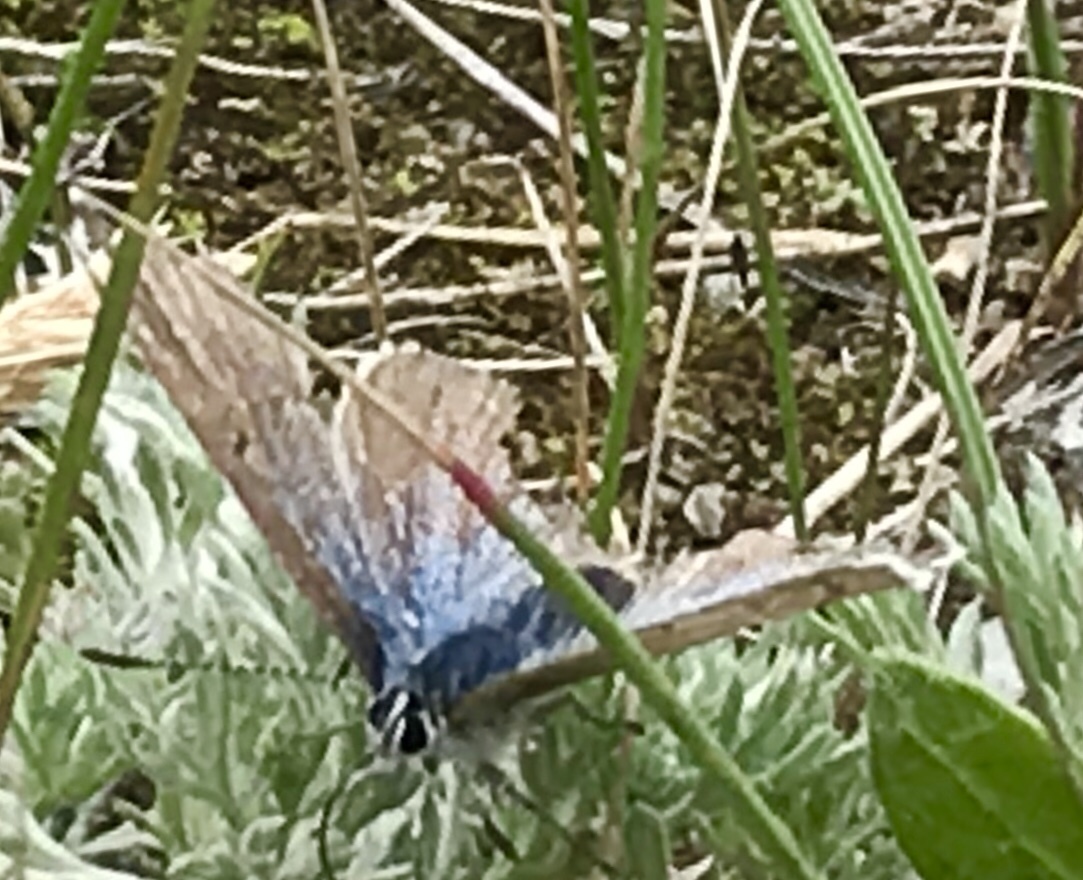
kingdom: Animalia
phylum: Arthropoda
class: Insecta
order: Lepidoptera
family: Lycaenidae
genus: Glaucopsyche
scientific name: Glaucopsyche lygdamus
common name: Silvery blue
